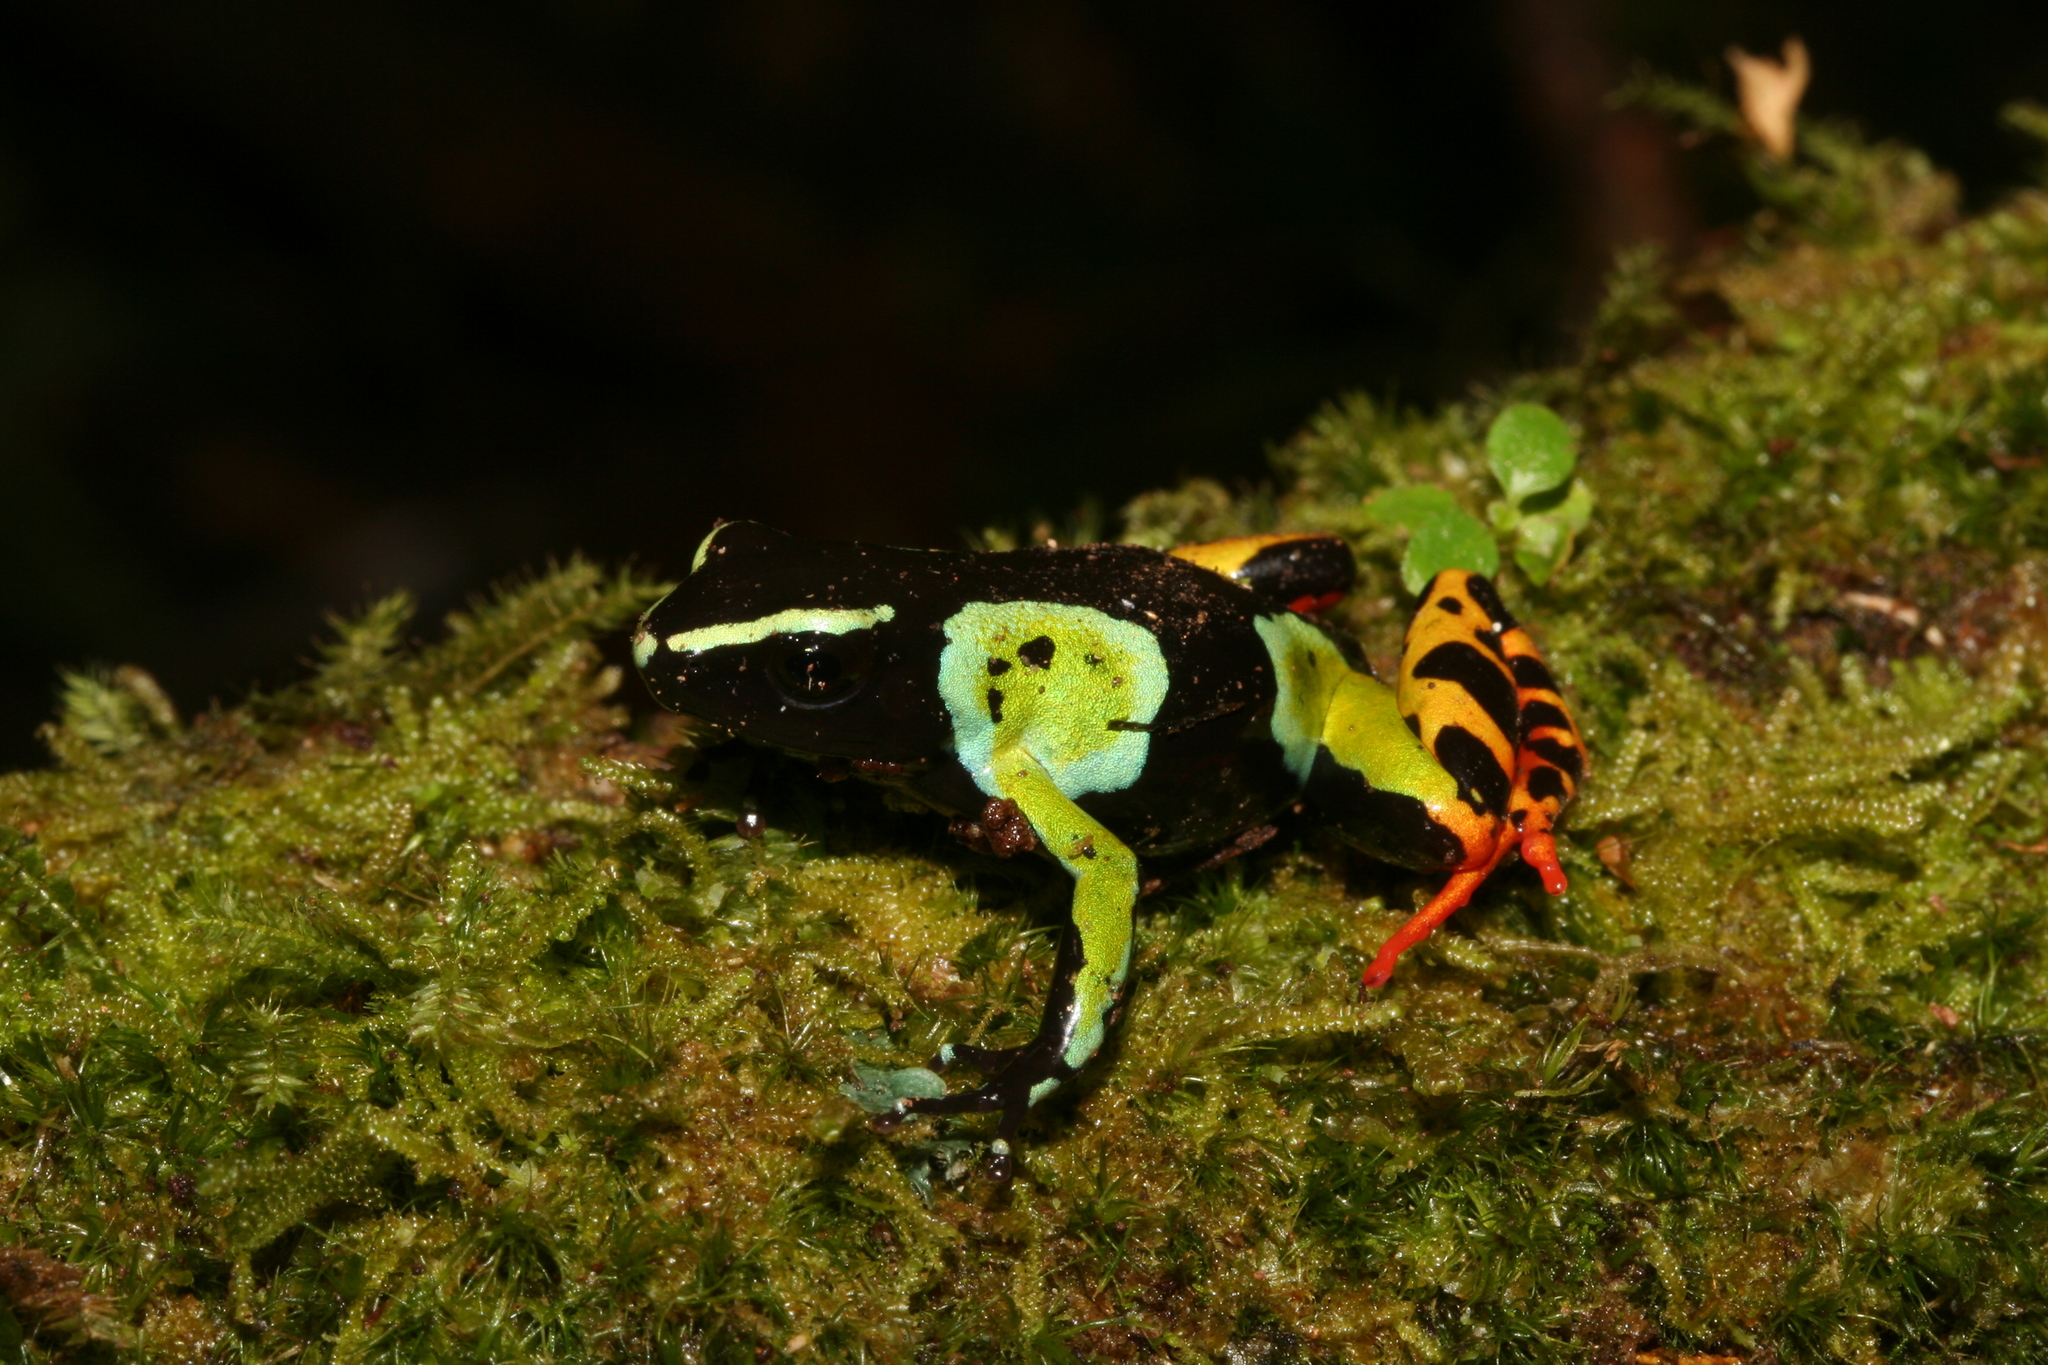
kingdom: Animalia
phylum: Chordata
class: Amphibia
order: Anura
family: Mantellidae
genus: Mantella
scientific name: Mantella baroni
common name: Baron's mantella
